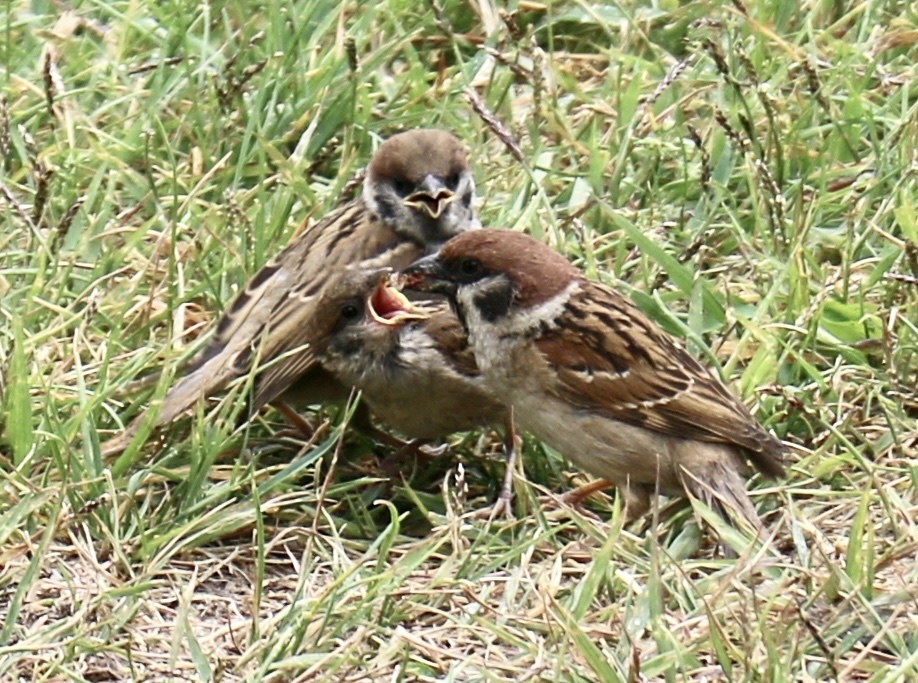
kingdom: Animalia
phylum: Chordata
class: Aves
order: Passeriformes
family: Passeridae
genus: Passer
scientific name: Passer montanus
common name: Eurasian tree sparrow
